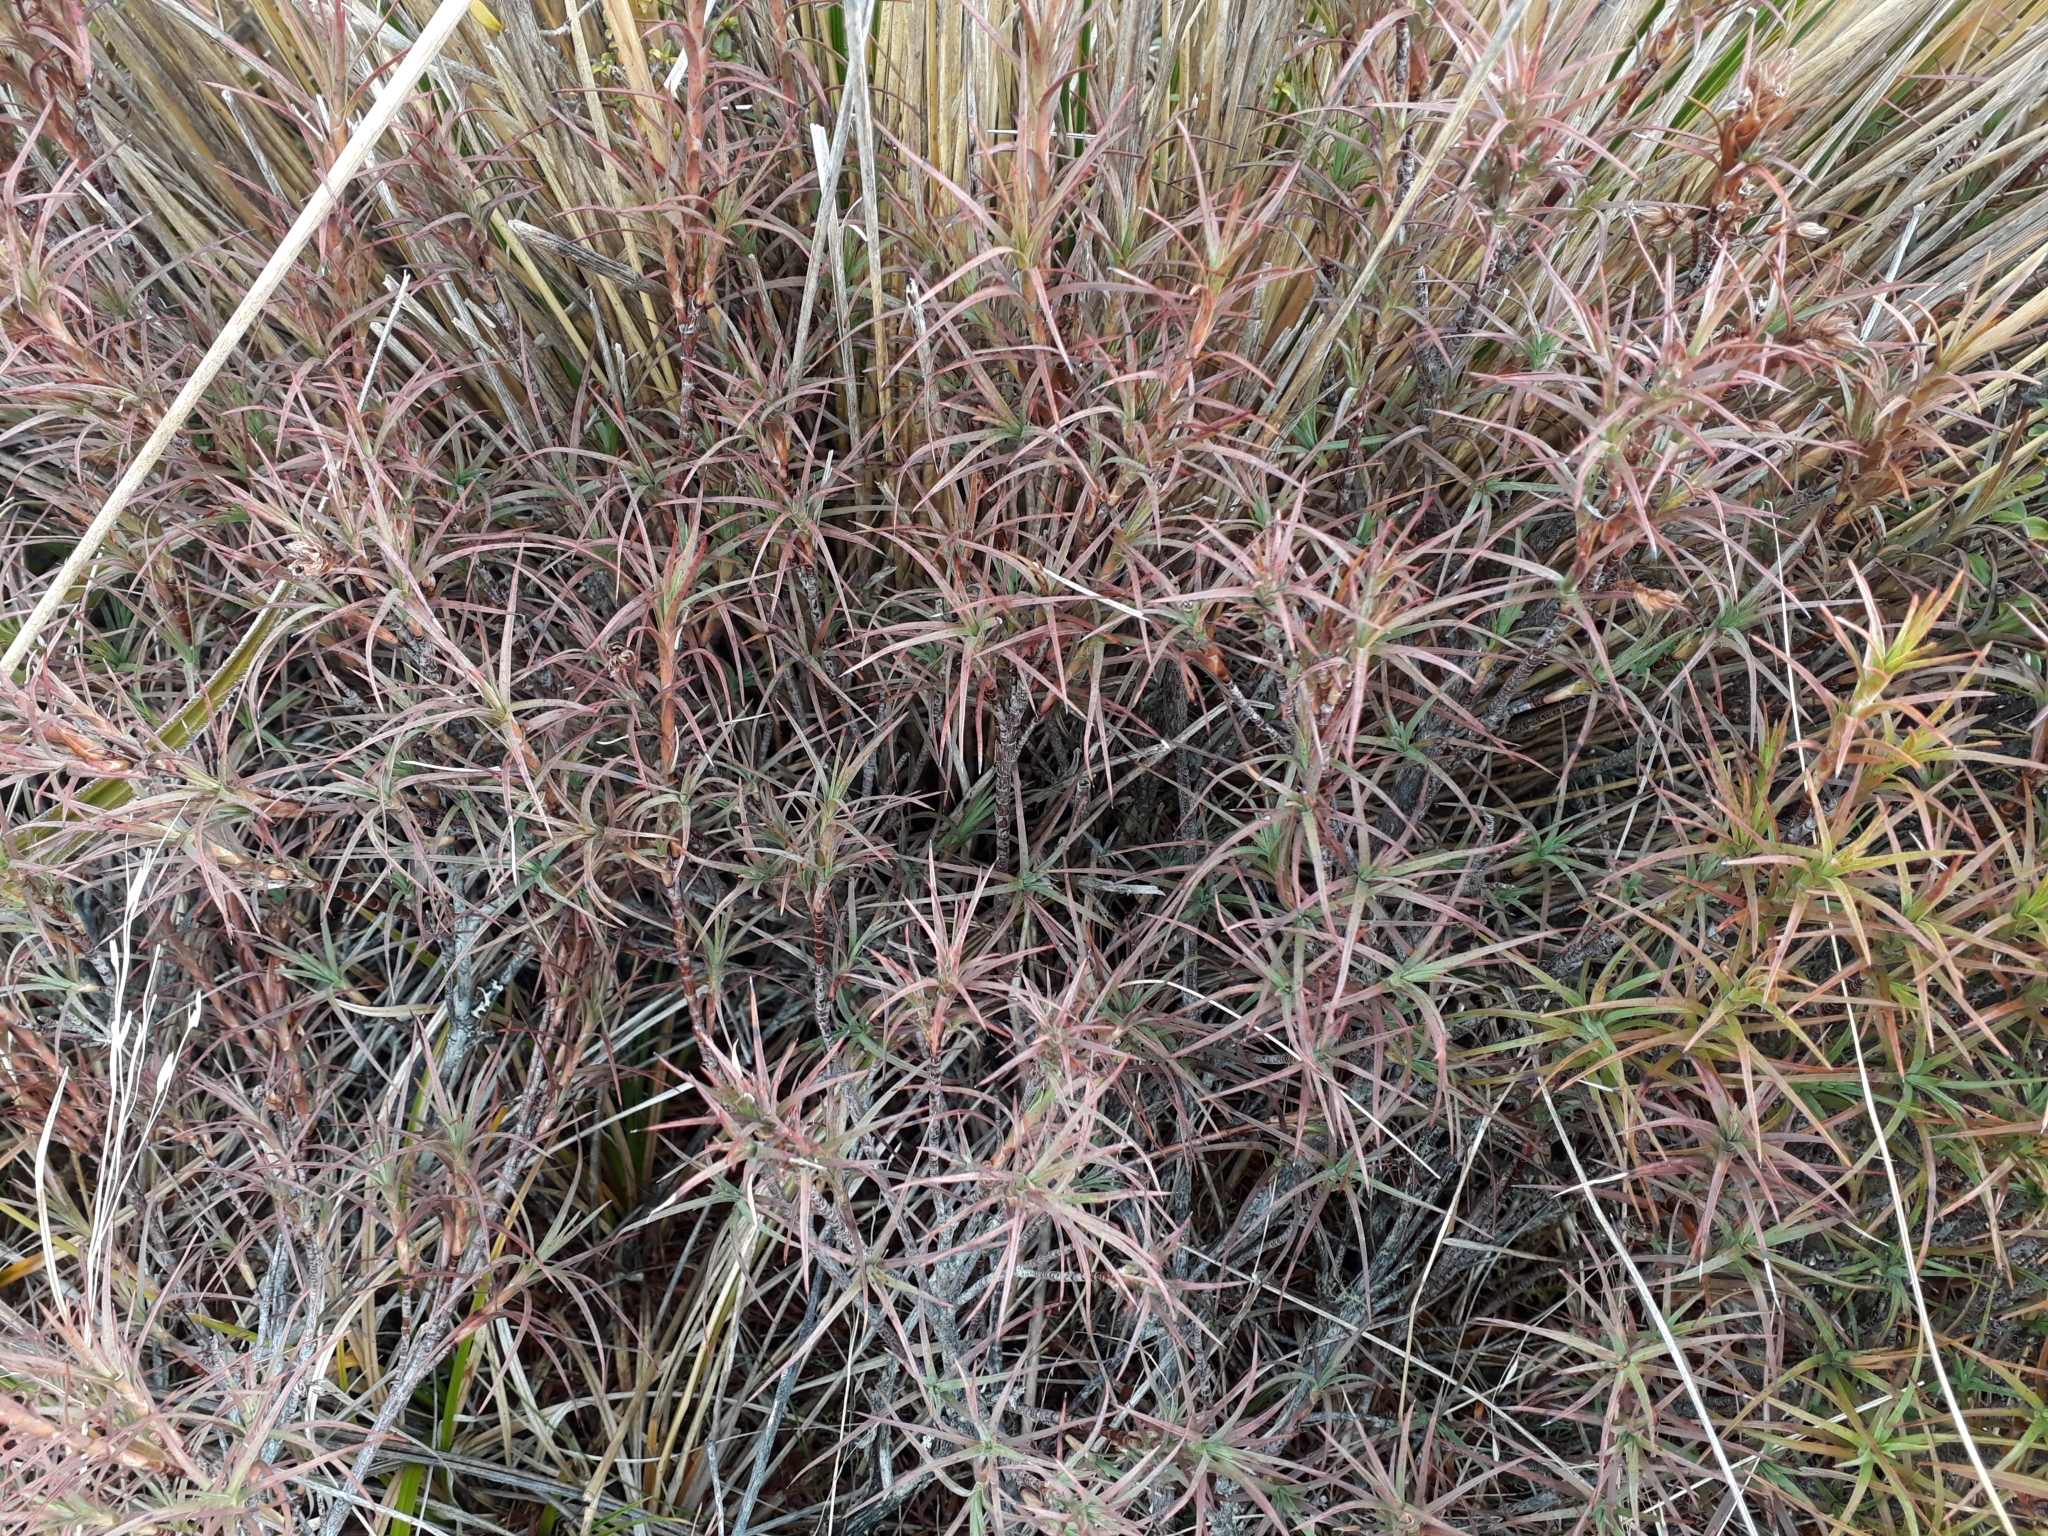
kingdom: Plantae
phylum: Tracheophyta
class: Magnoliopsida
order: Ericales
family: Ericaceae
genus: Dracophyllum
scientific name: Dracophyllum recurvum
